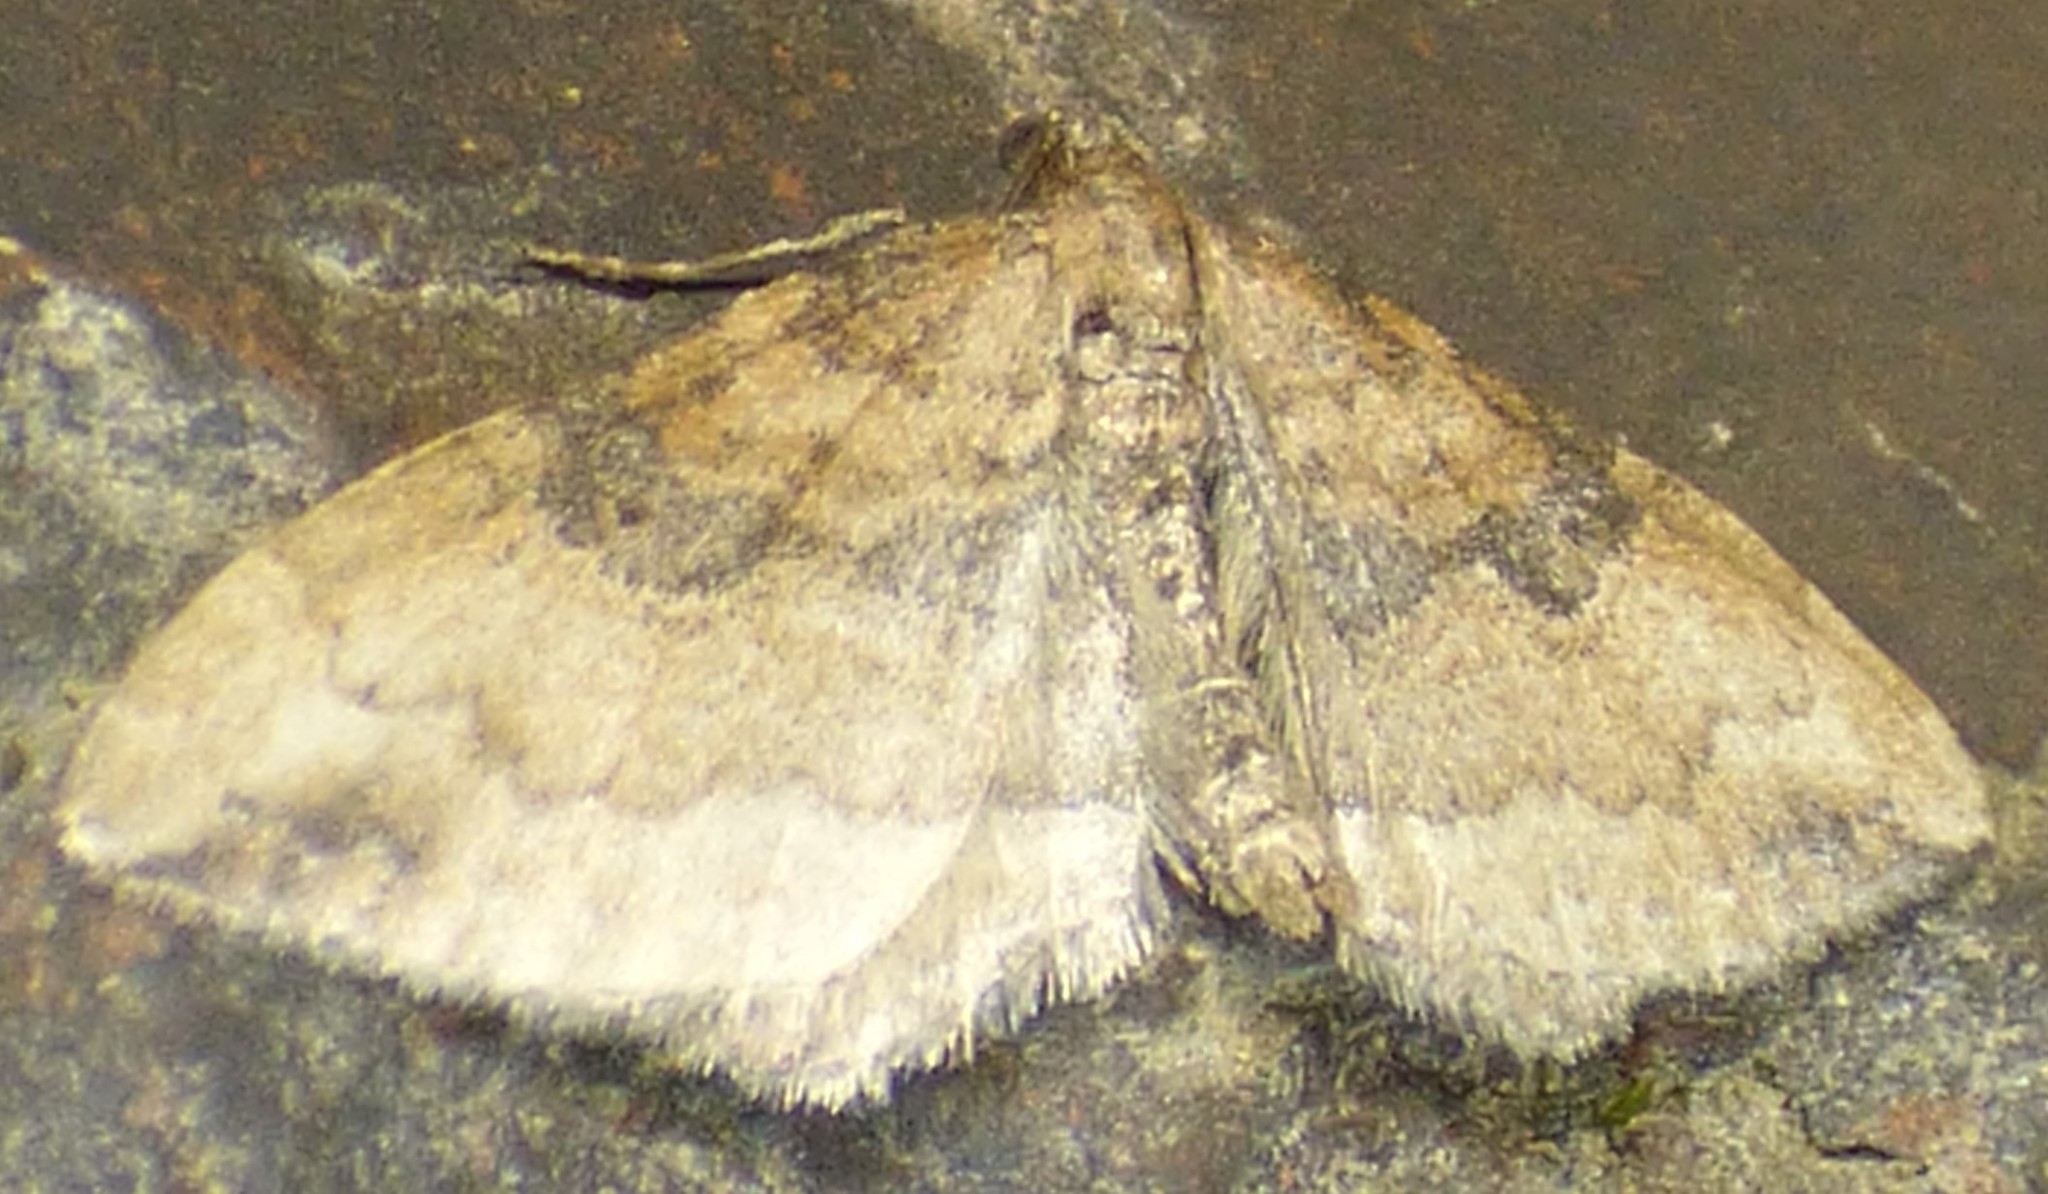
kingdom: Animalia
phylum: Arthropoda
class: Insecta
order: Lepidoptera
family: Geometridae
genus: Orthonama
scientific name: Orthonama obstipata
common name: The gem
